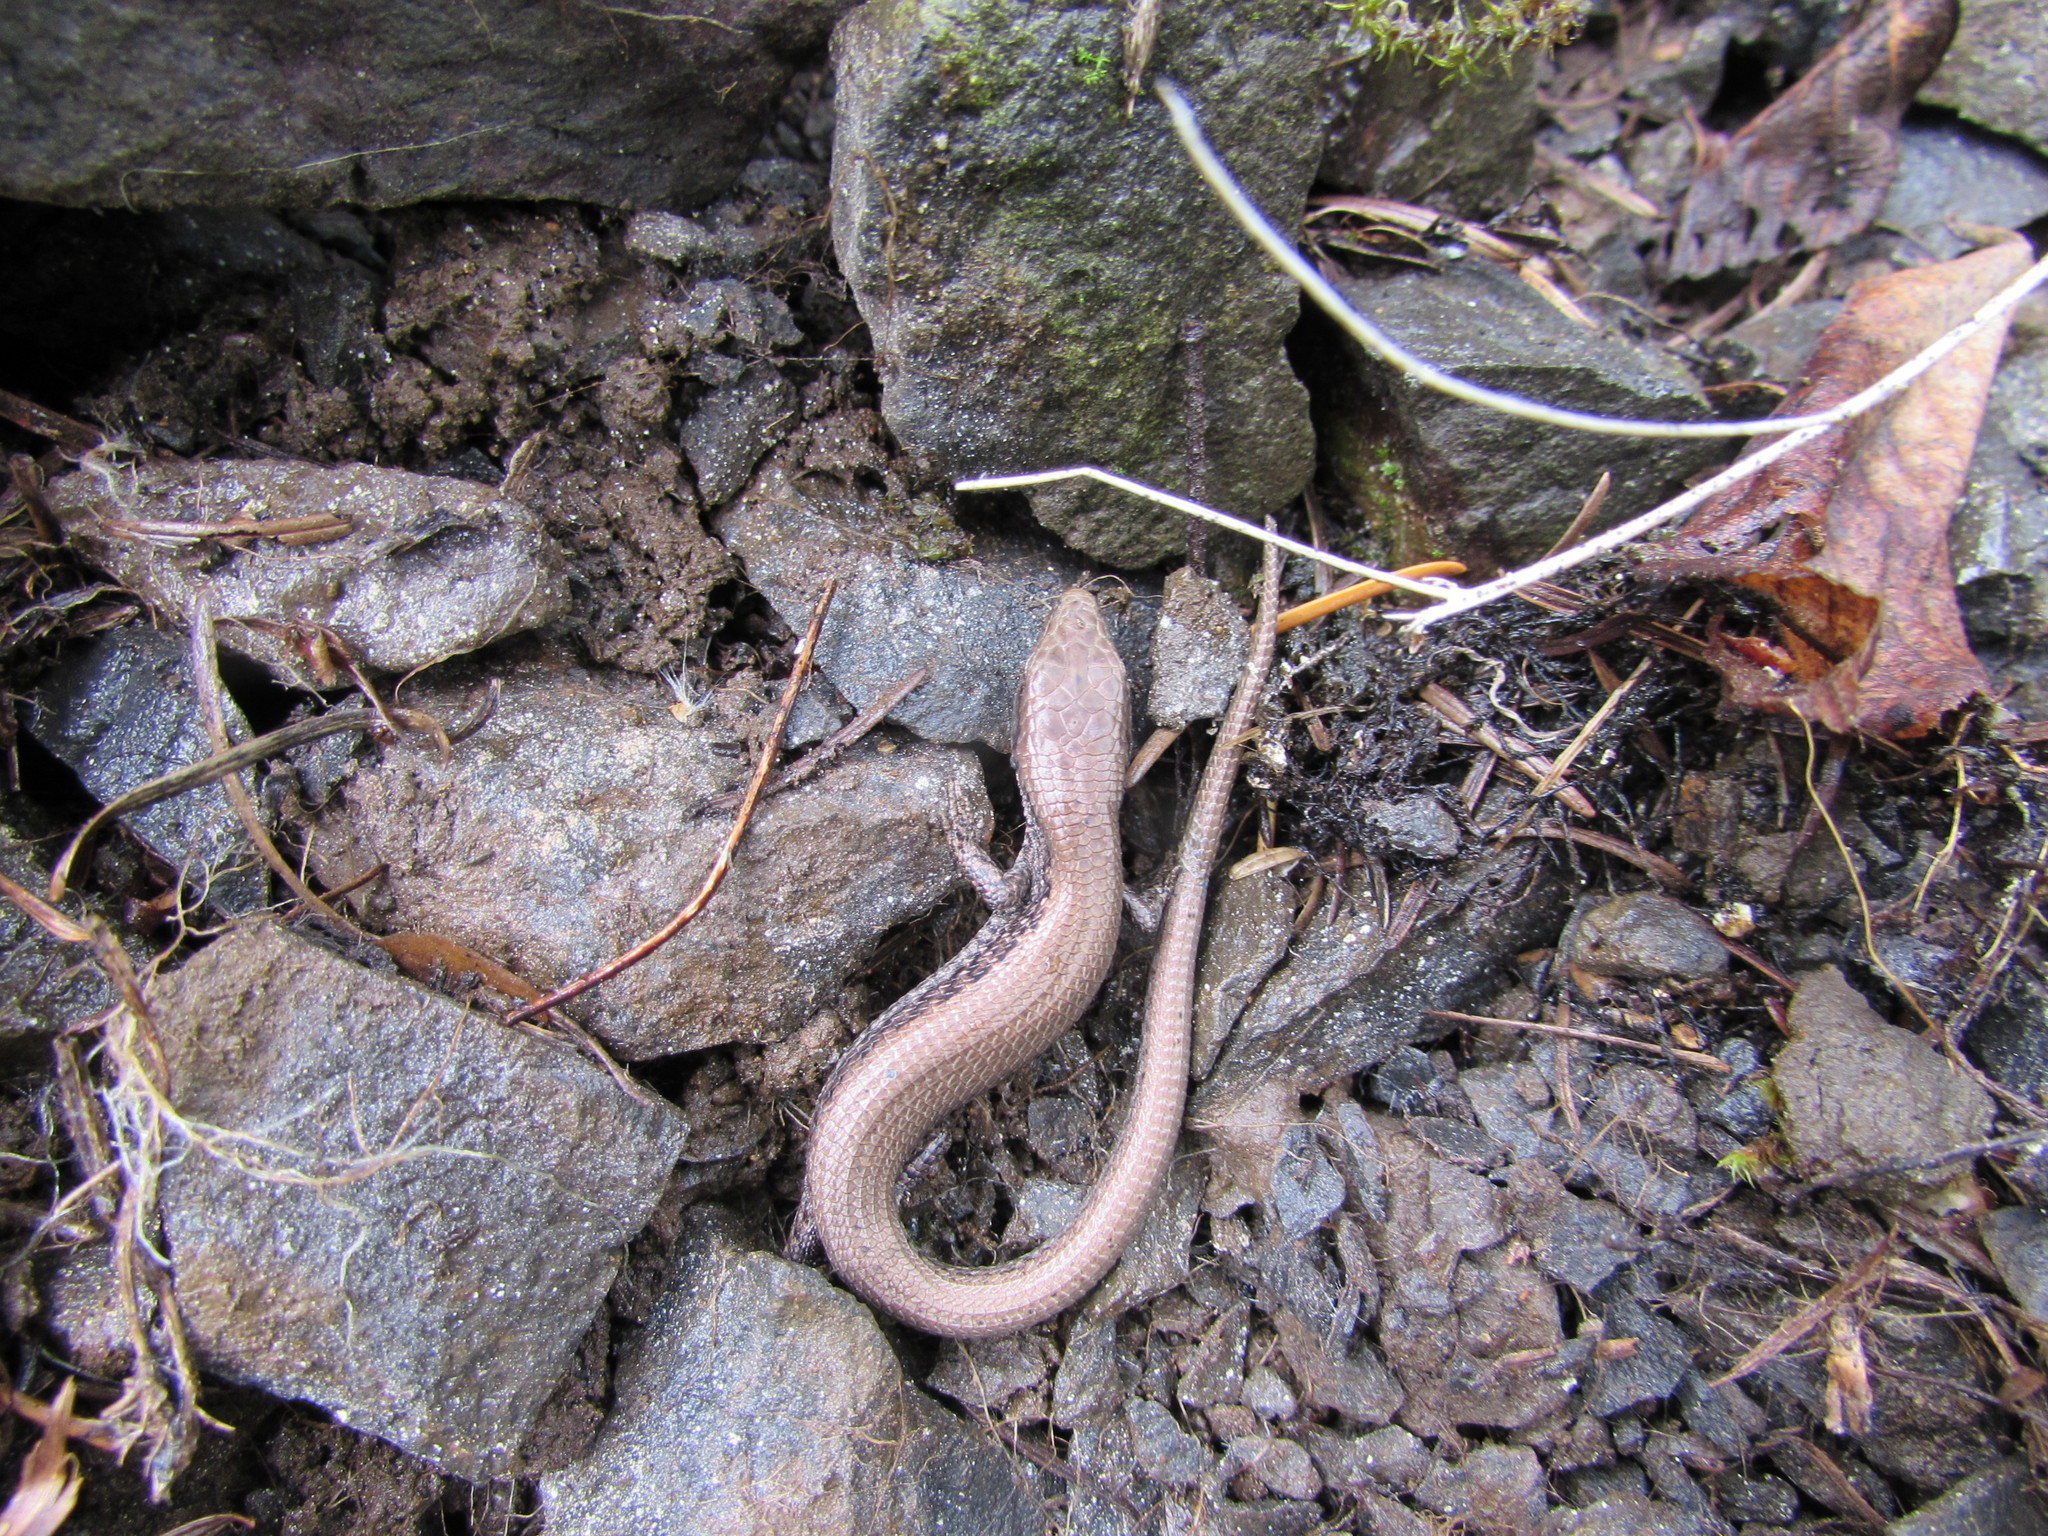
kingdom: Animalia
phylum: Chordata
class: Squamata
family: Anguidae
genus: Elgaria
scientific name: Elgaria coerulea
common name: Northern alligator lizard
